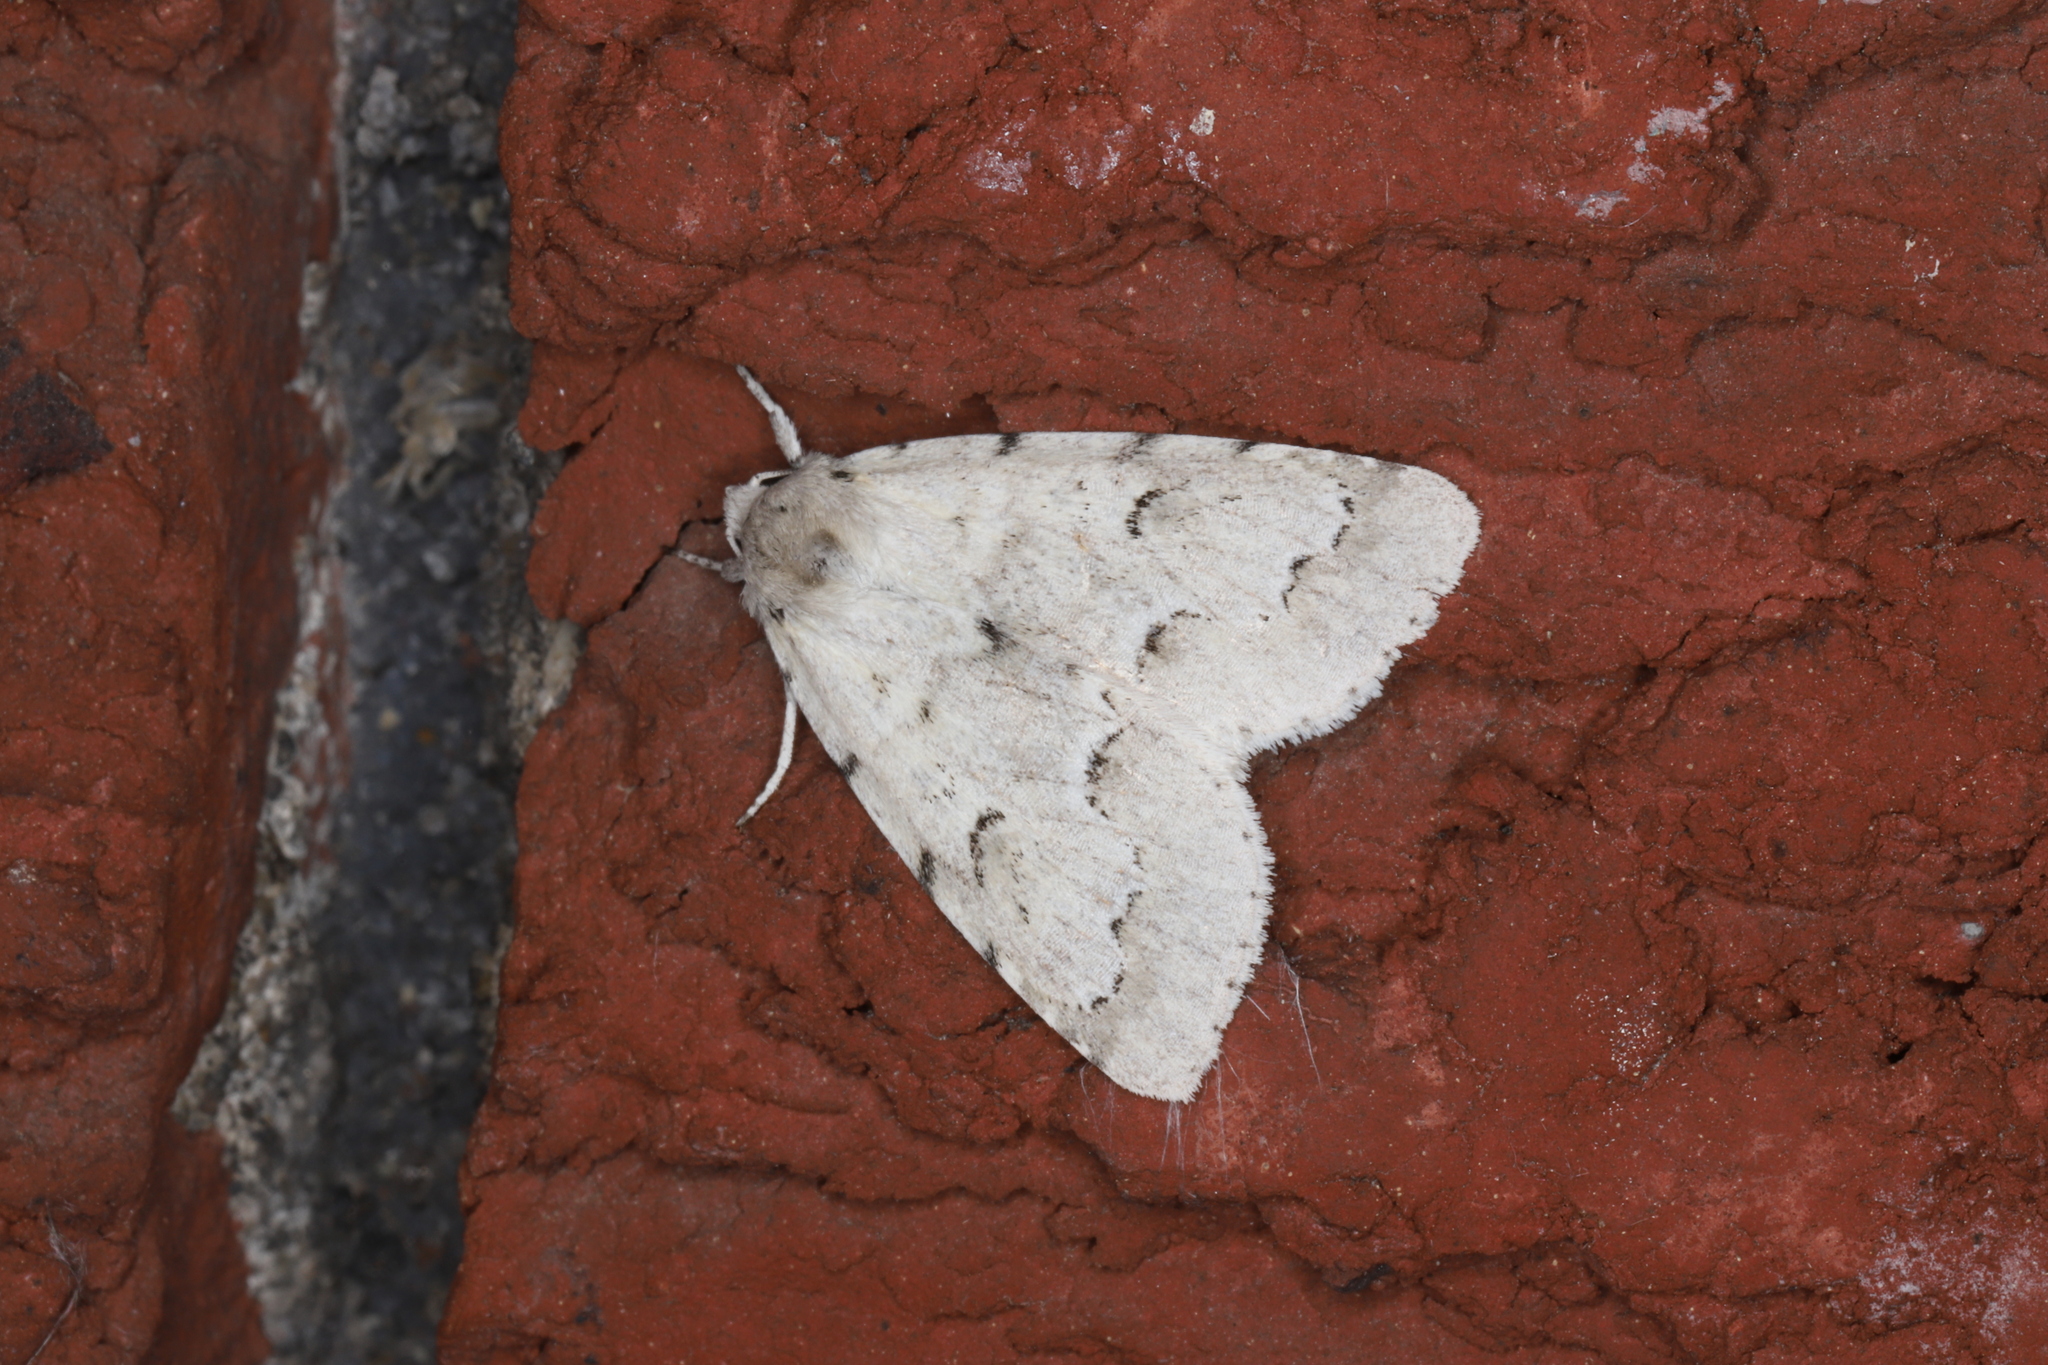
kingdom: Animalia
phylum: Arthropoda
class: Insecta
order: Lepidoptera
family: Noctuidae
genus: Acronicta
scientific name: Acronicta innotata
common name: Unmarked dagger
